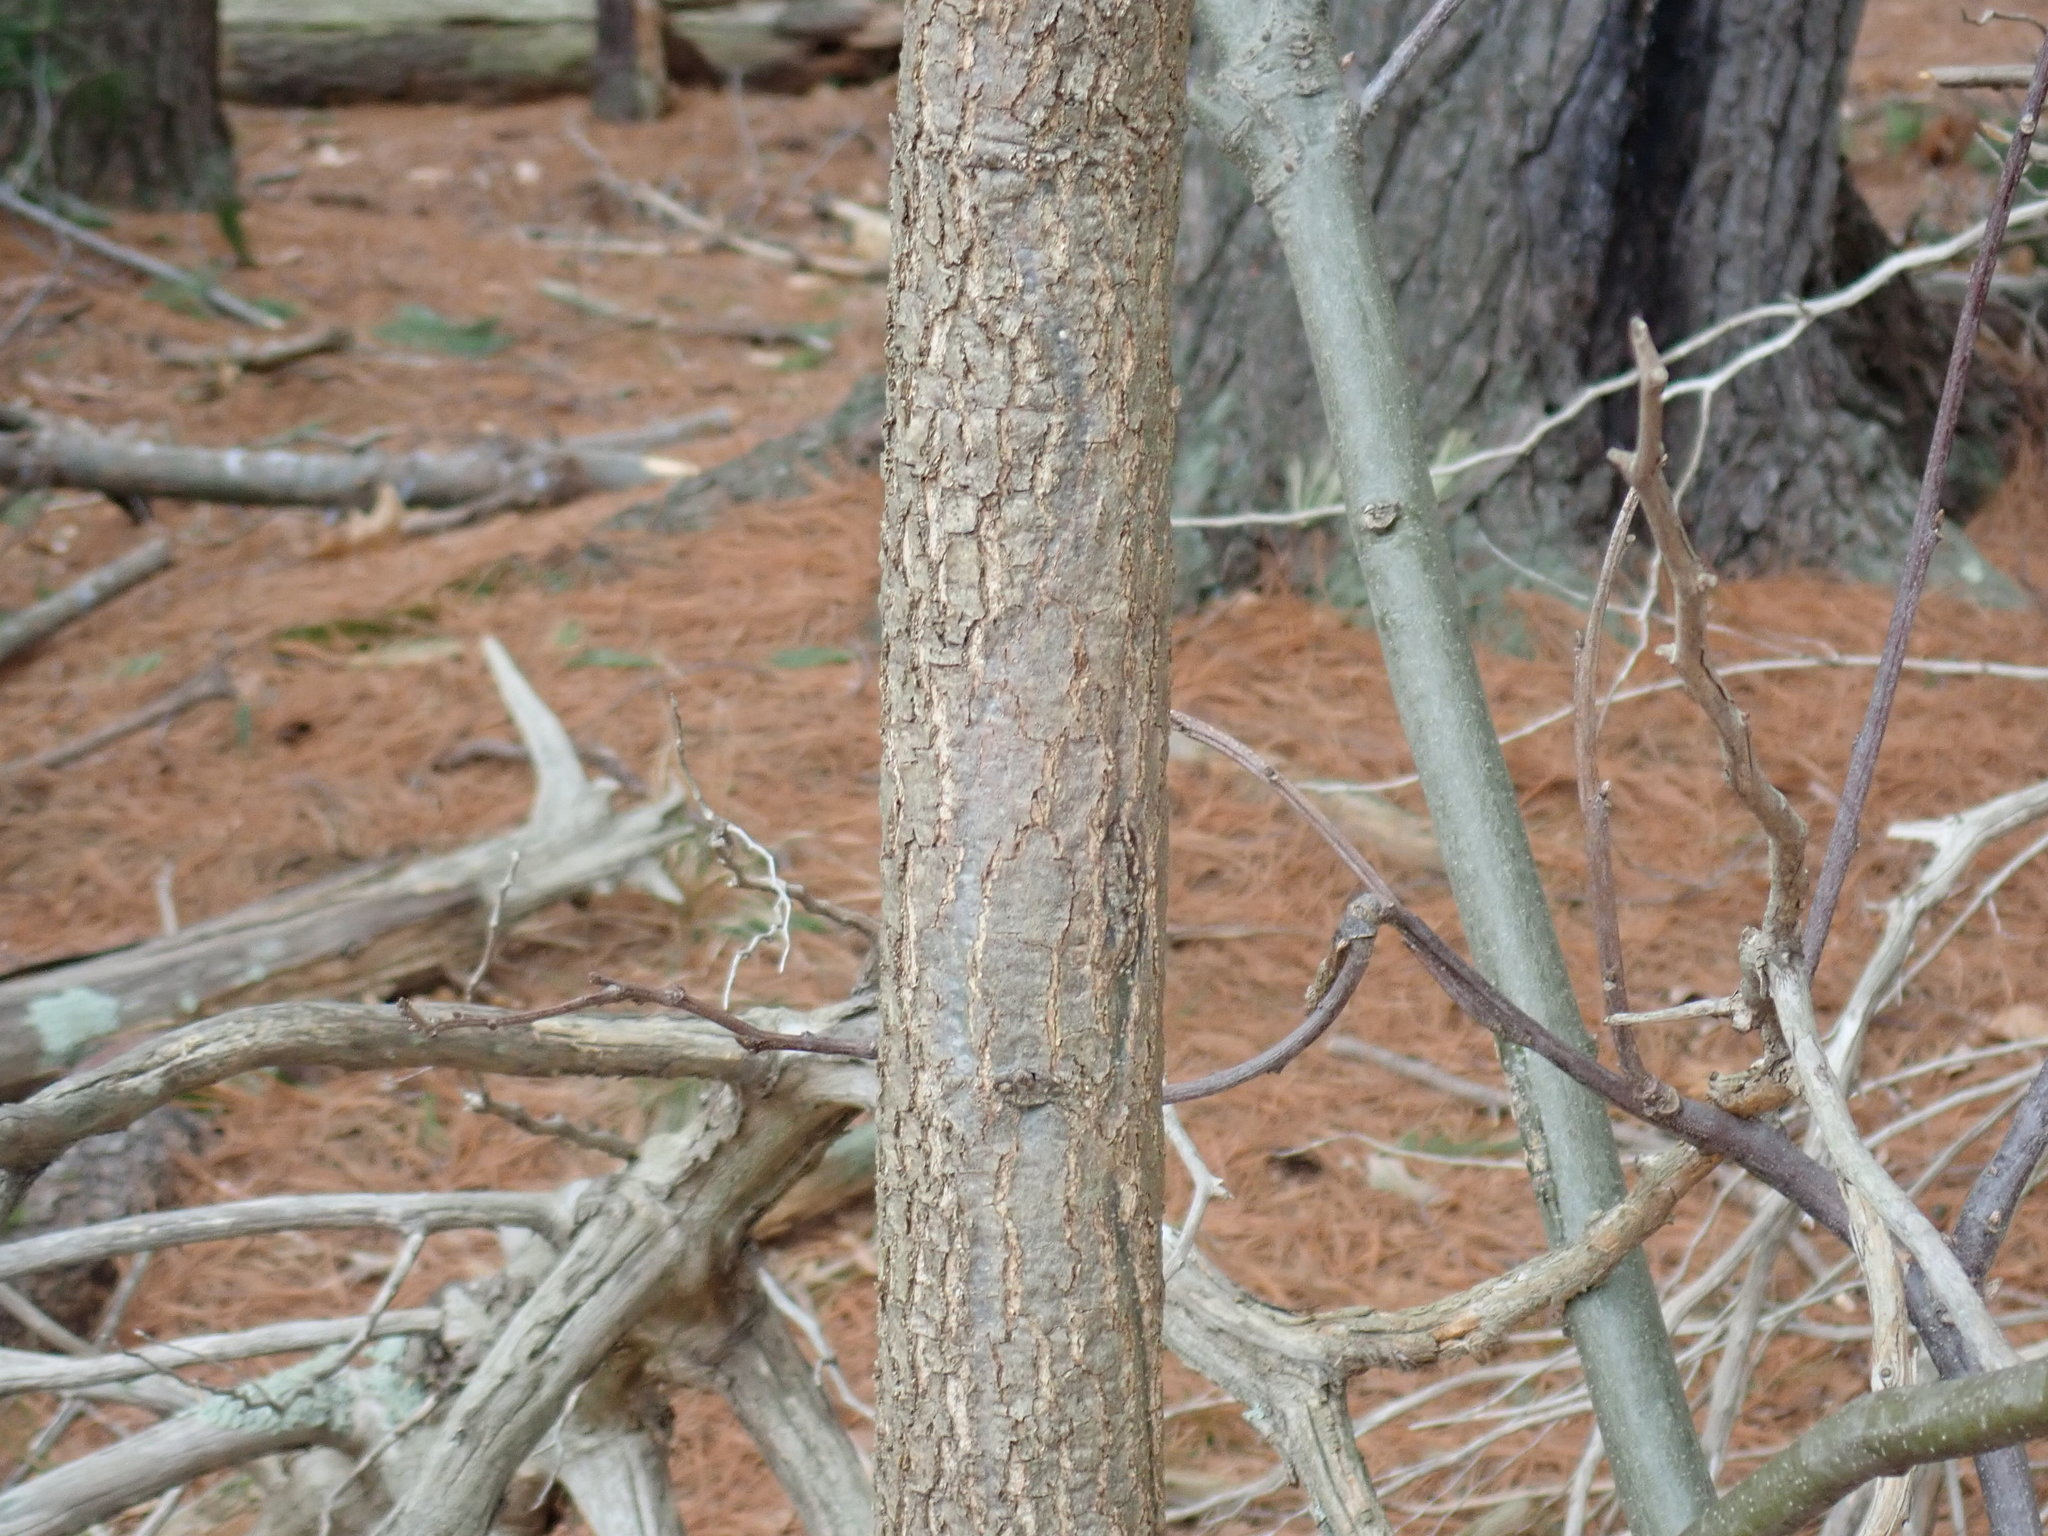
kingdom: Plantae
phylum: Tracheophyta
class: Magnoliopsida
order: Fagales
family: Fagaceae
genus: Quercus
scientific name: Quercus velutina
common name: Black oak
